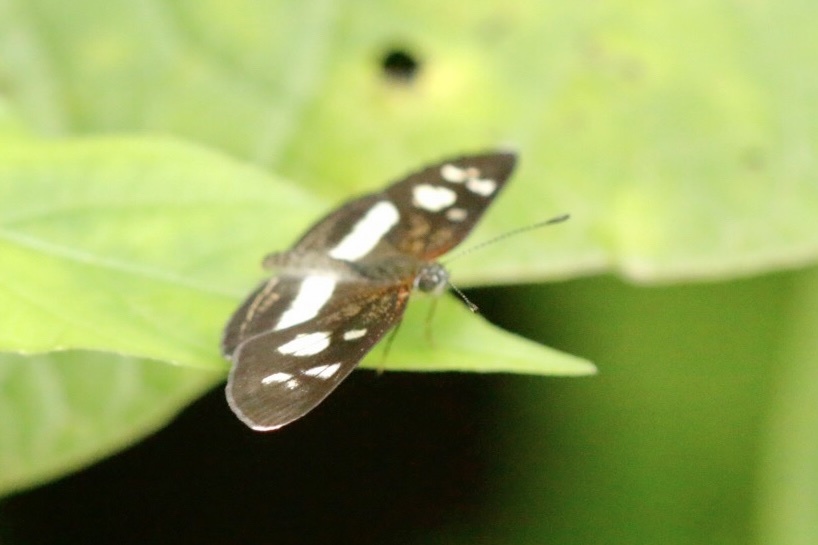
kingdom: Animalia
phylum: Arthropoda
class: Insecta
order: Lepidoptera
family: Nymphalidae
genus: Eresia
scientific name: Eresia clio
